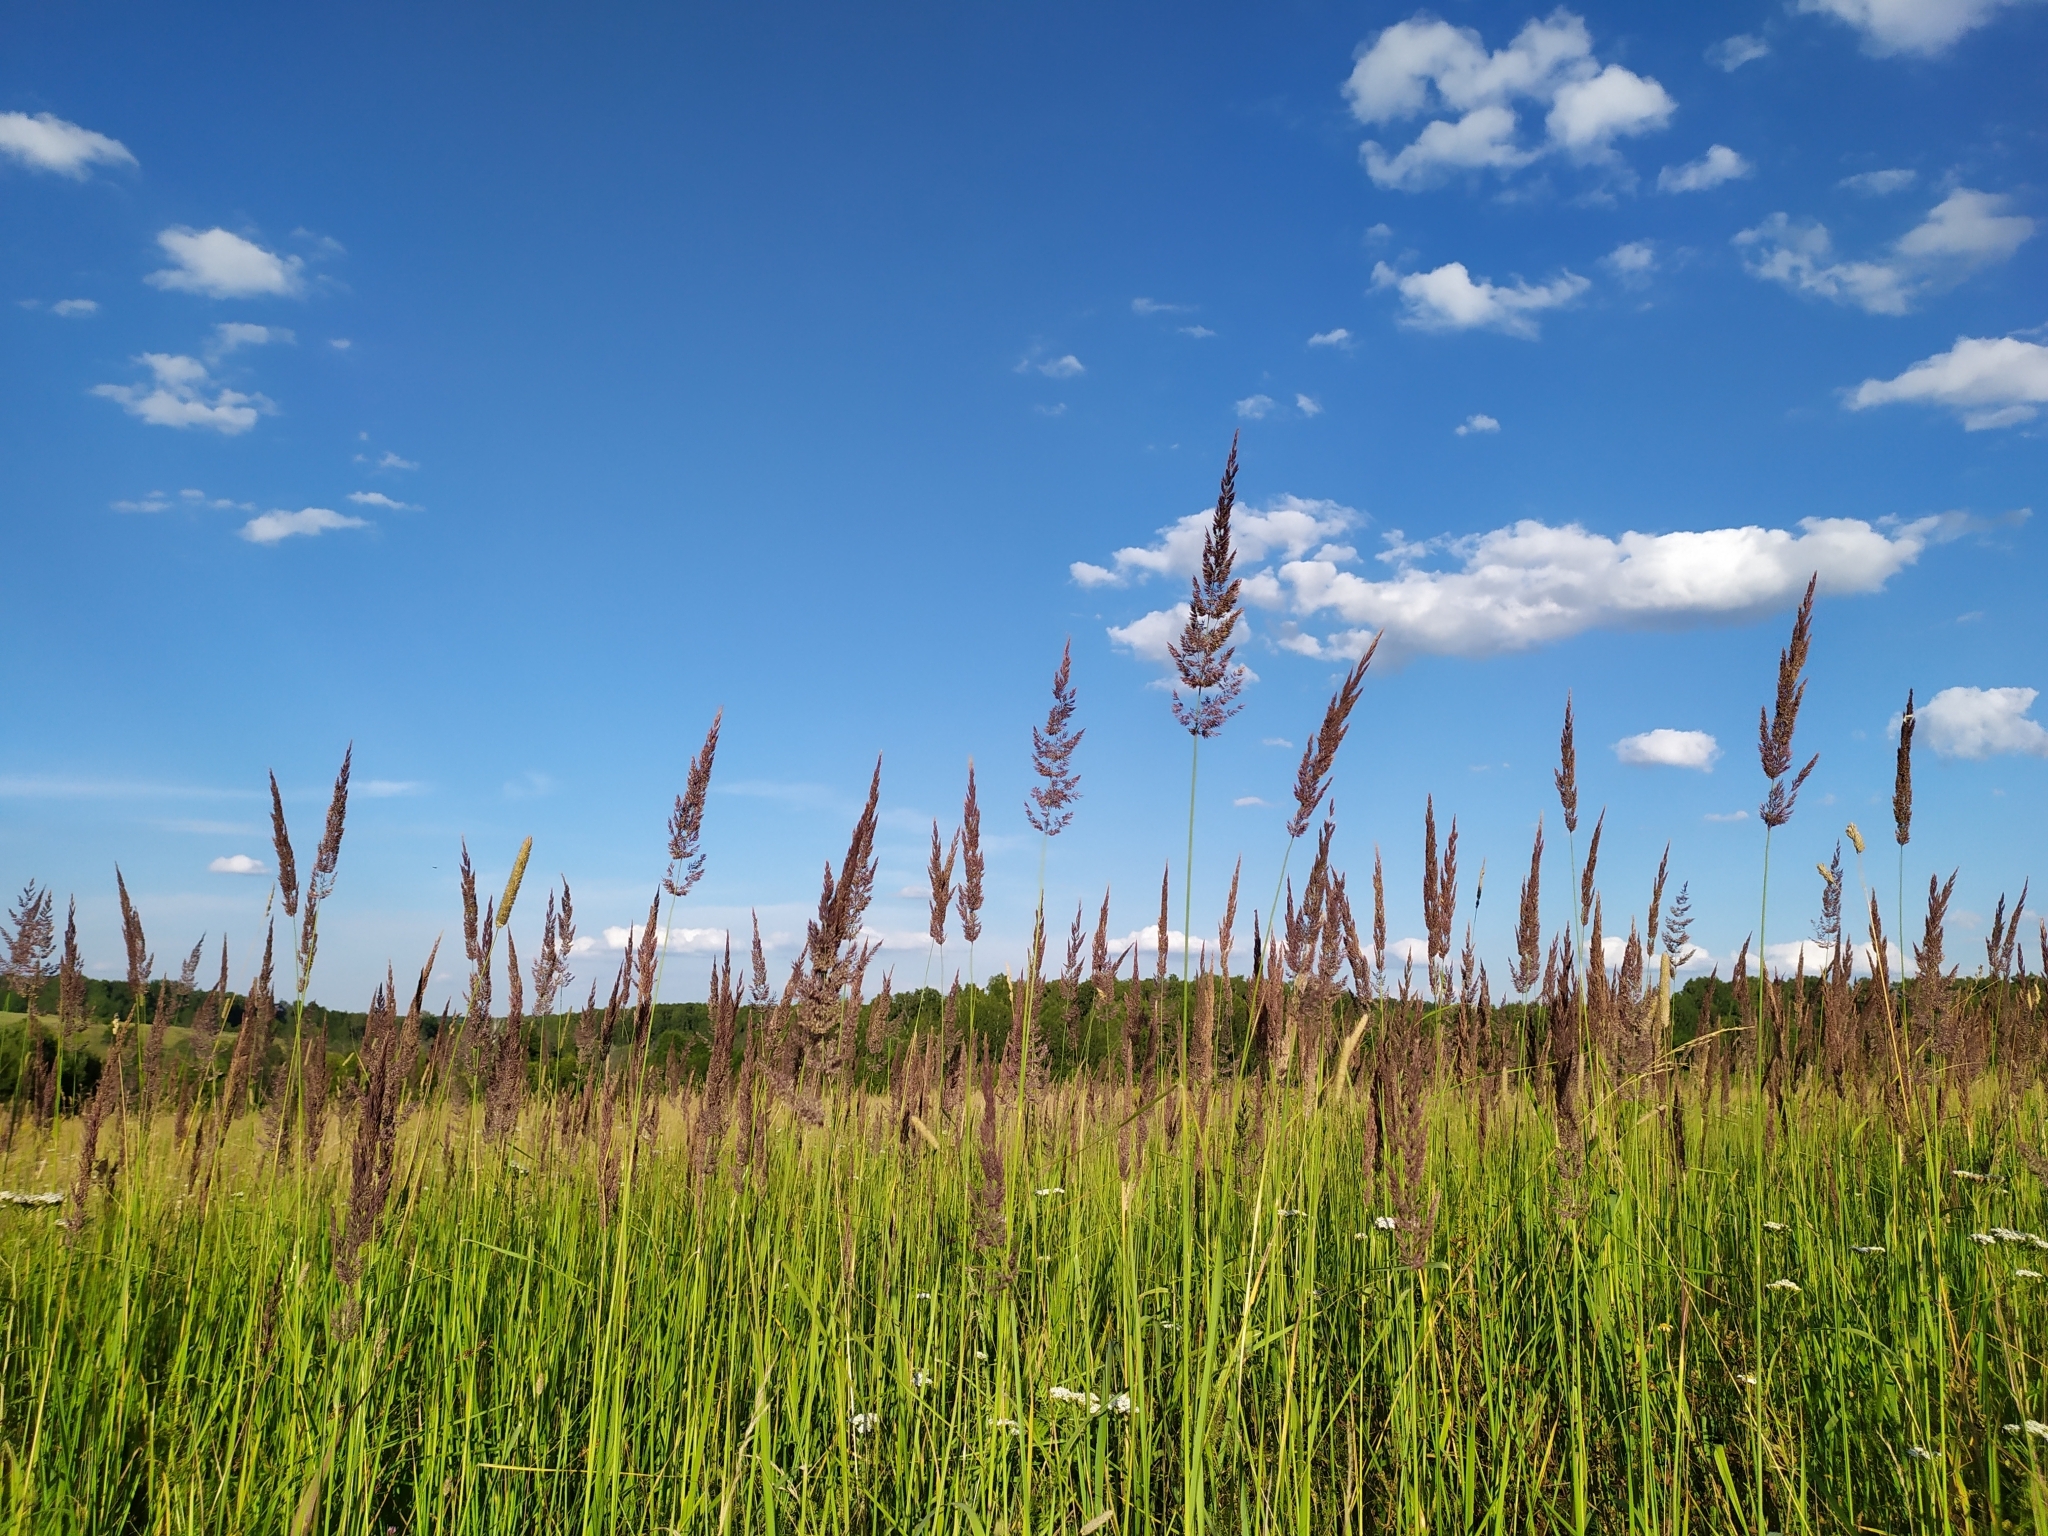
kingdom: Plantae
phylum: Tracheophyta
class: Liliopsida
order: Poales
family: Poaceae
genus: Calamagrostis
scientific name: Calamagrostis epigejos
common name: Wood small-reed
